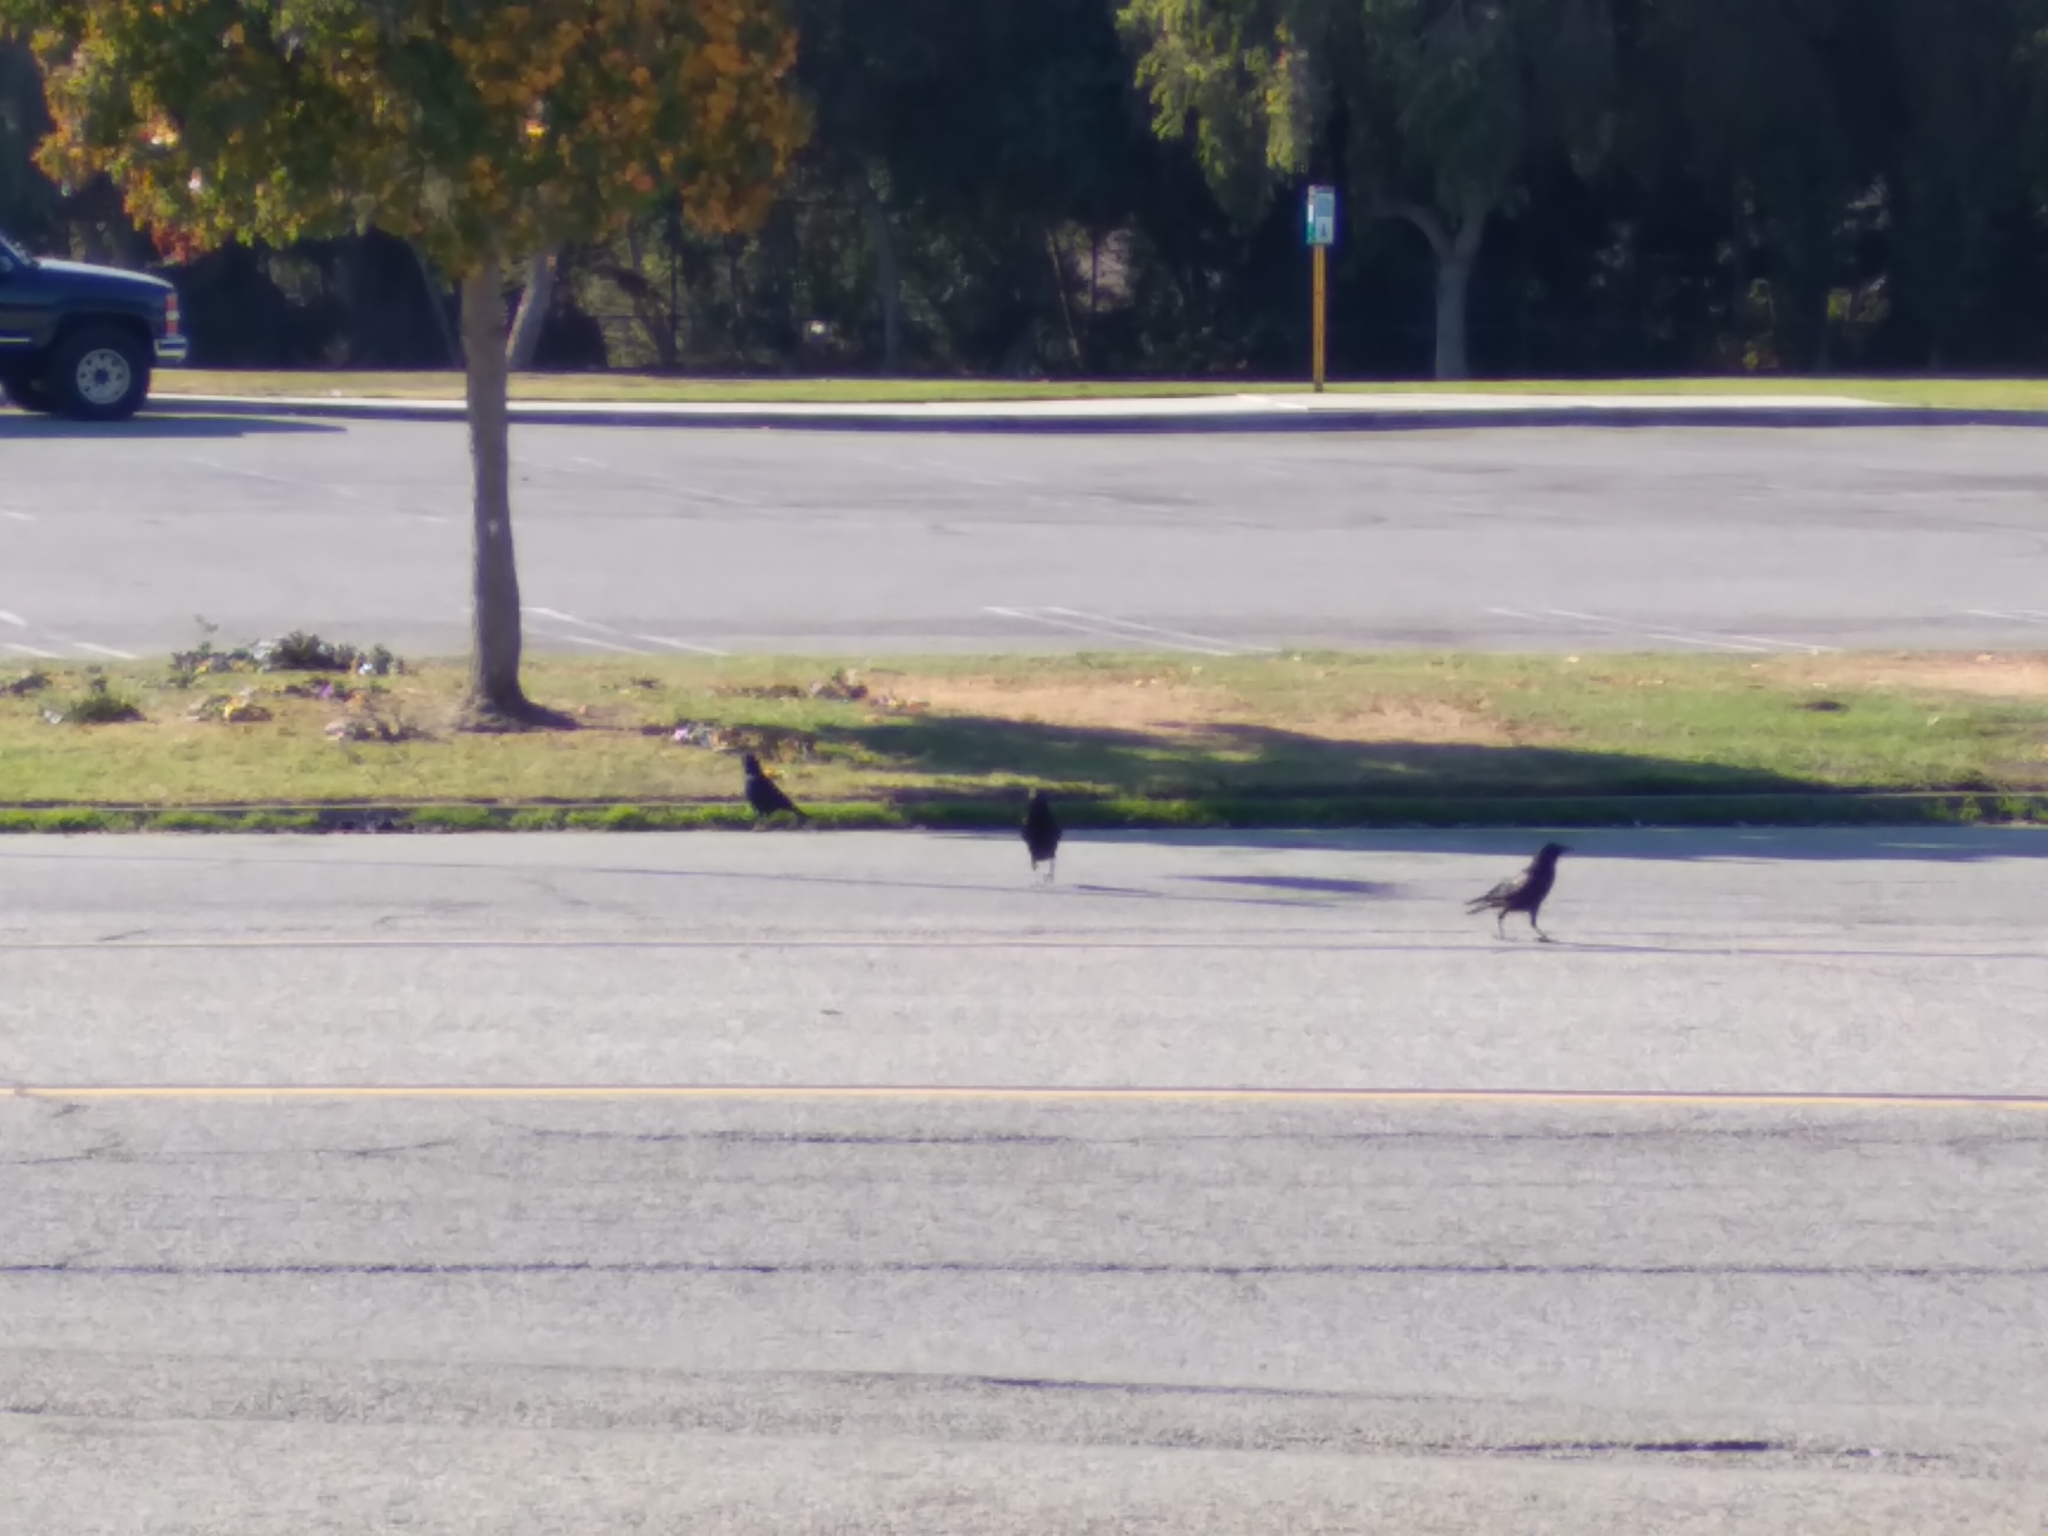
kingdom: Animalia
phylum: Chordata
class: Aves
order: Passeriformes
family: Corvidae
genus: Corvus
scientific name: Corvus brachyrhynchos
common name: American crow
